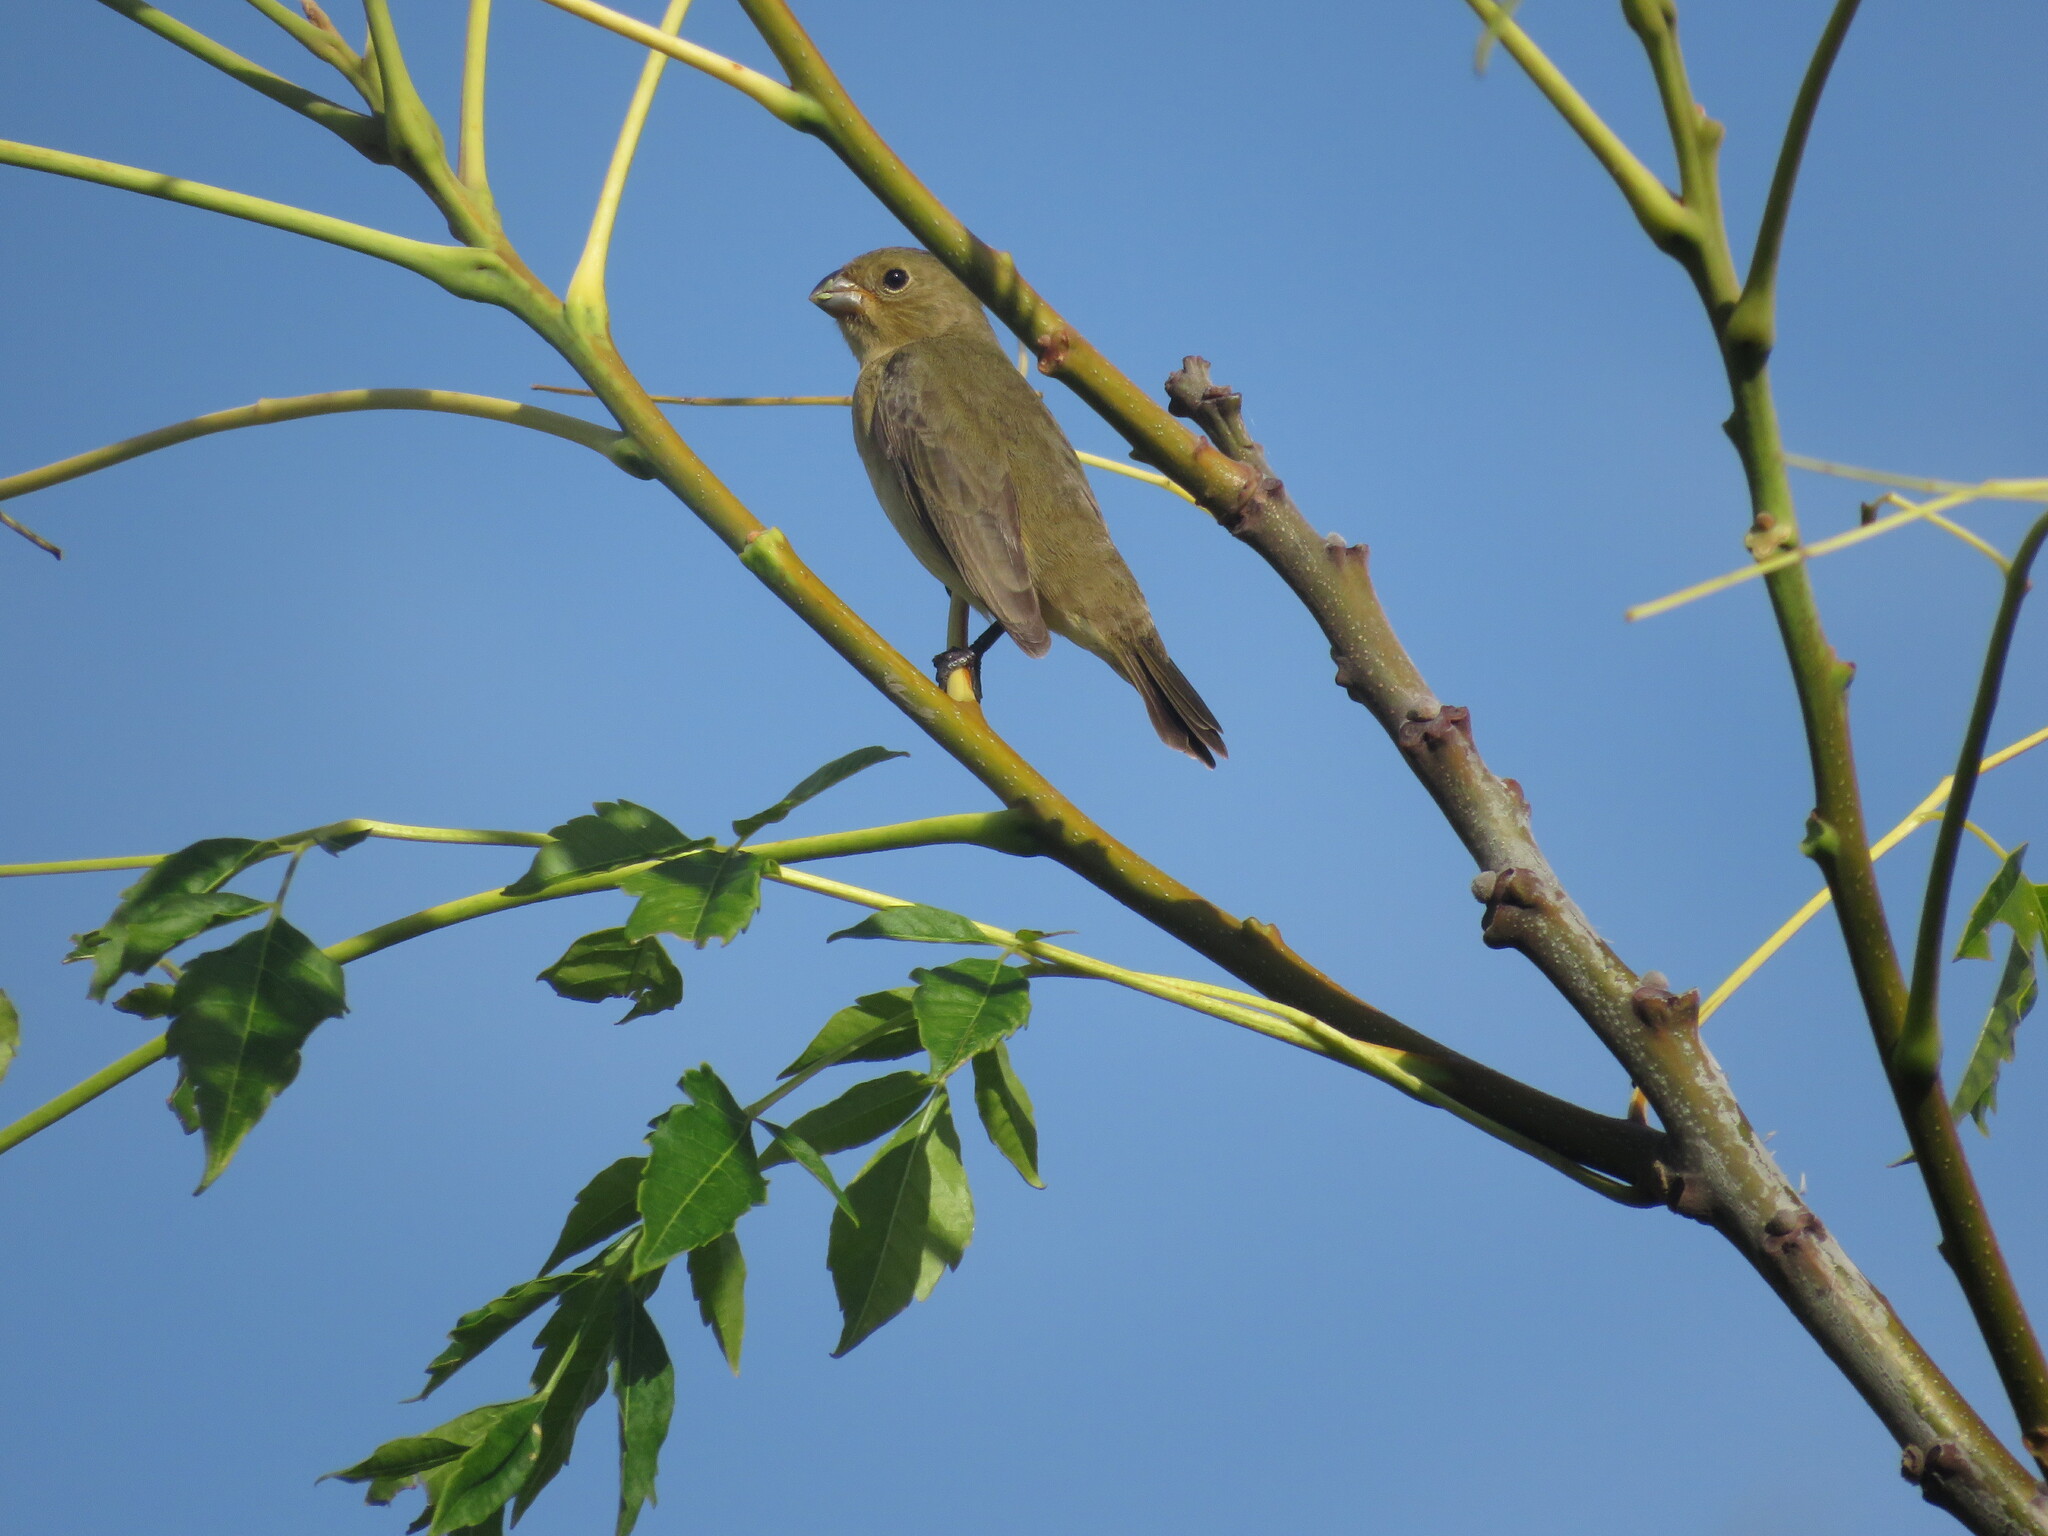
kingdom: Animalia
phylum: Chordata
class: Aves
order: Passeriformes
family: Thraupidae
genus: Sporophila
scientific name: Sporophila caerulescens
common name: Double-collared seedeater
